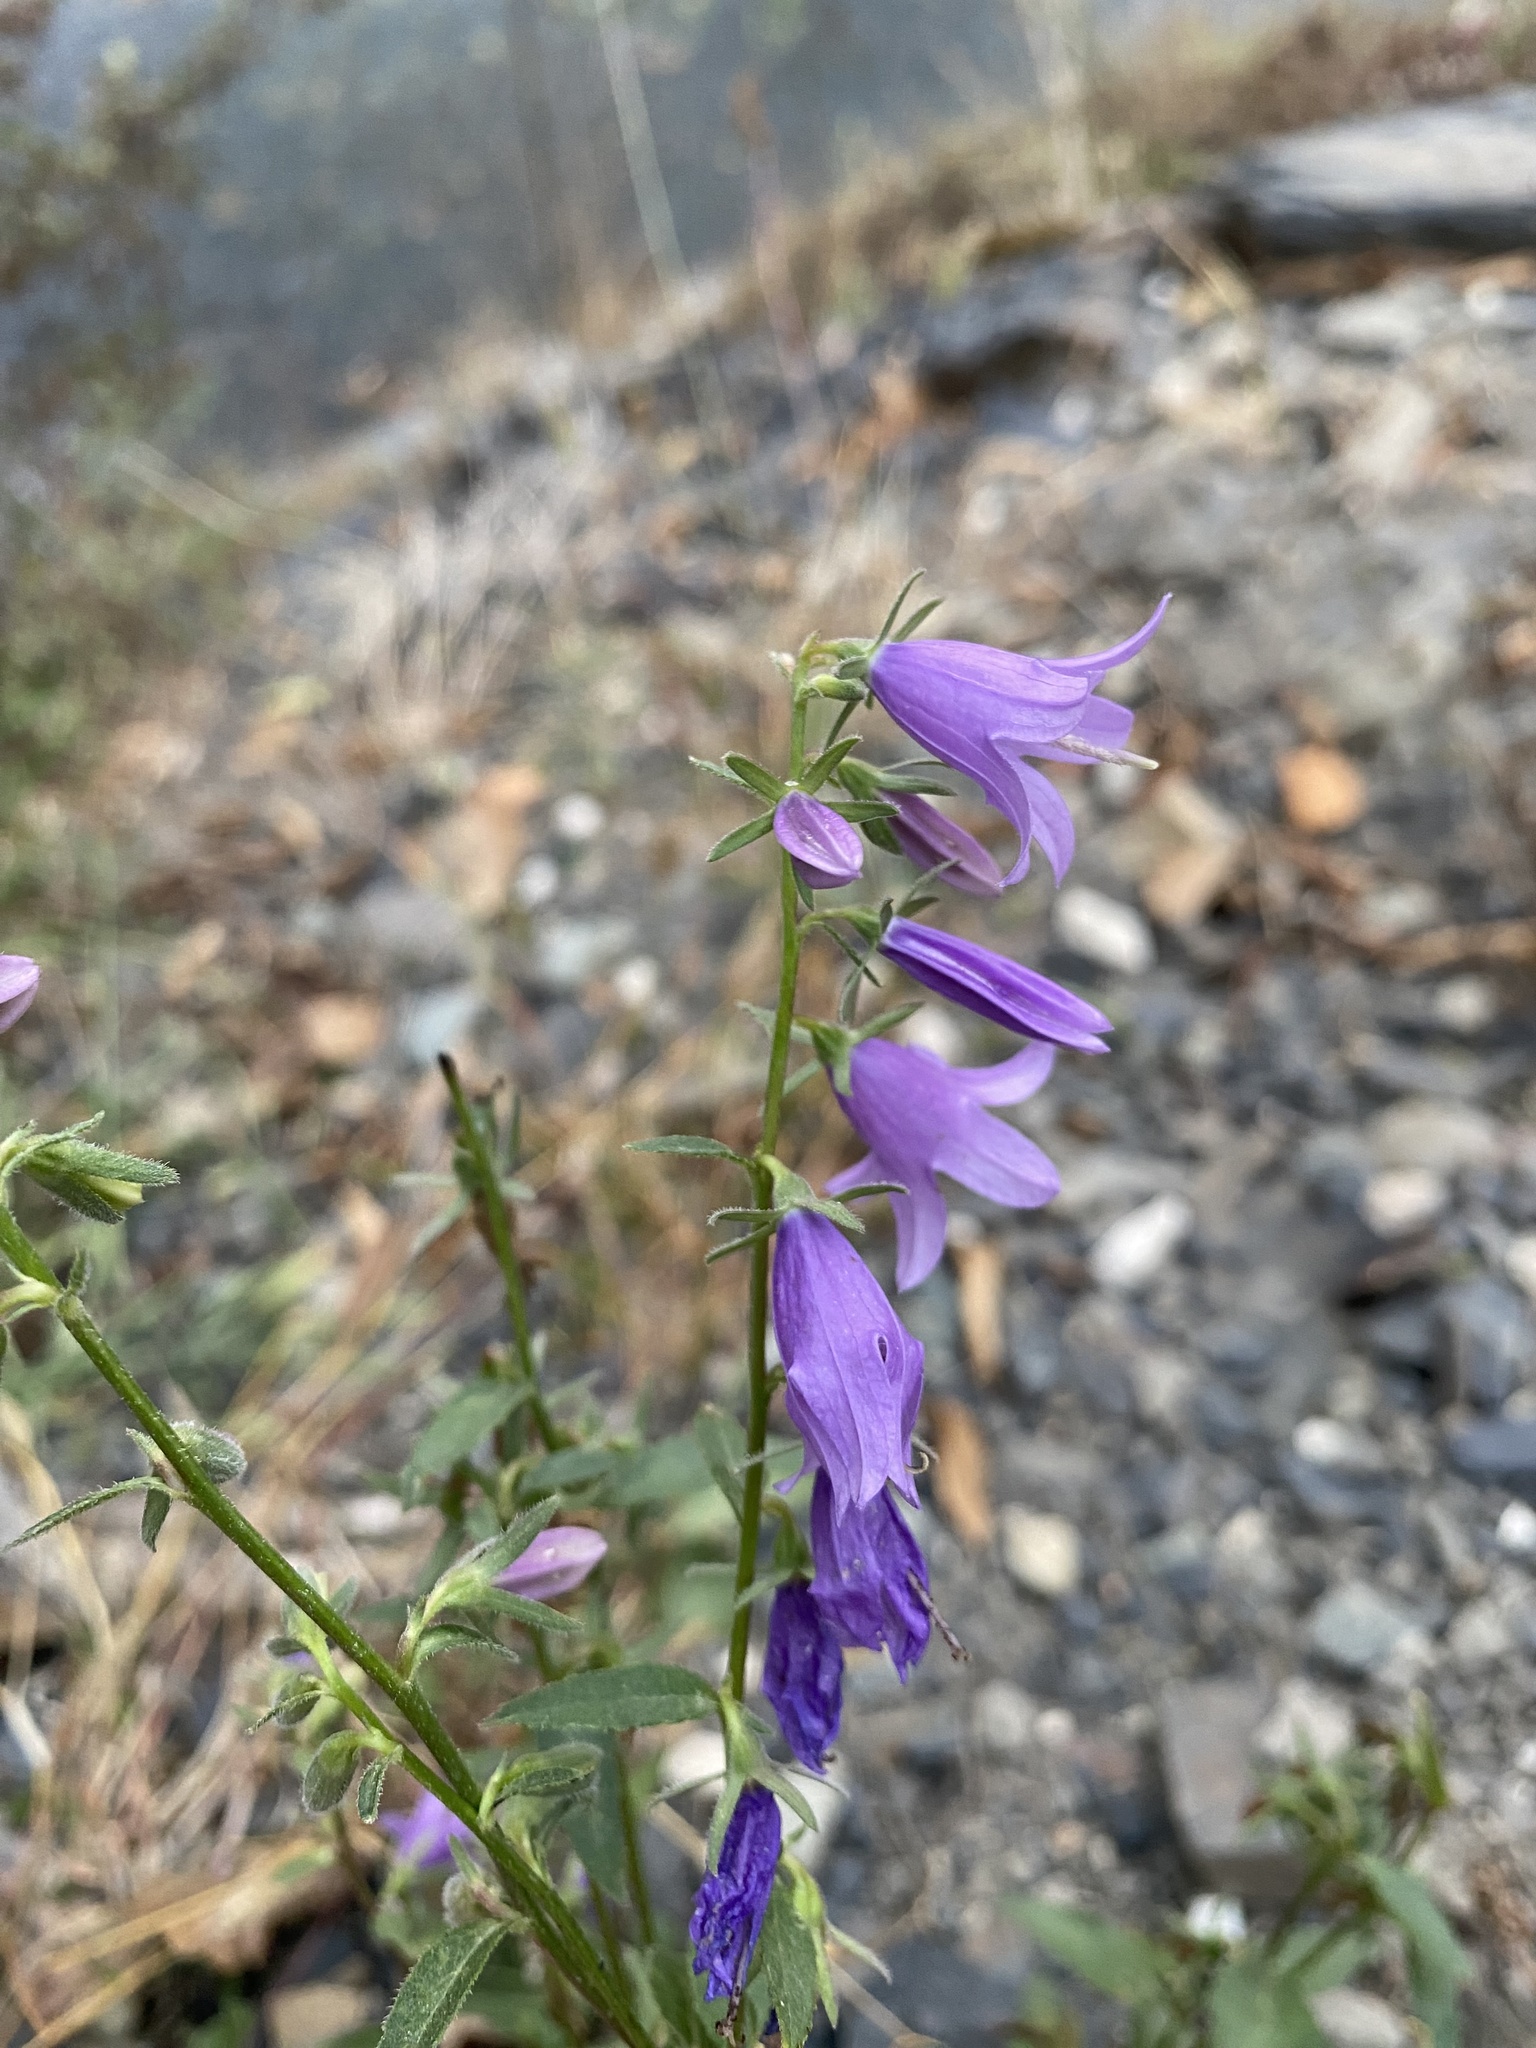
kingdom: Plantae
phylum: Tracheophyta
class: Magnoliopsida
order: Asterales
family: Campanulaceae
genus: Campanula
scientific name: Campanula rapunculoides
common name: Creeping bellflower
